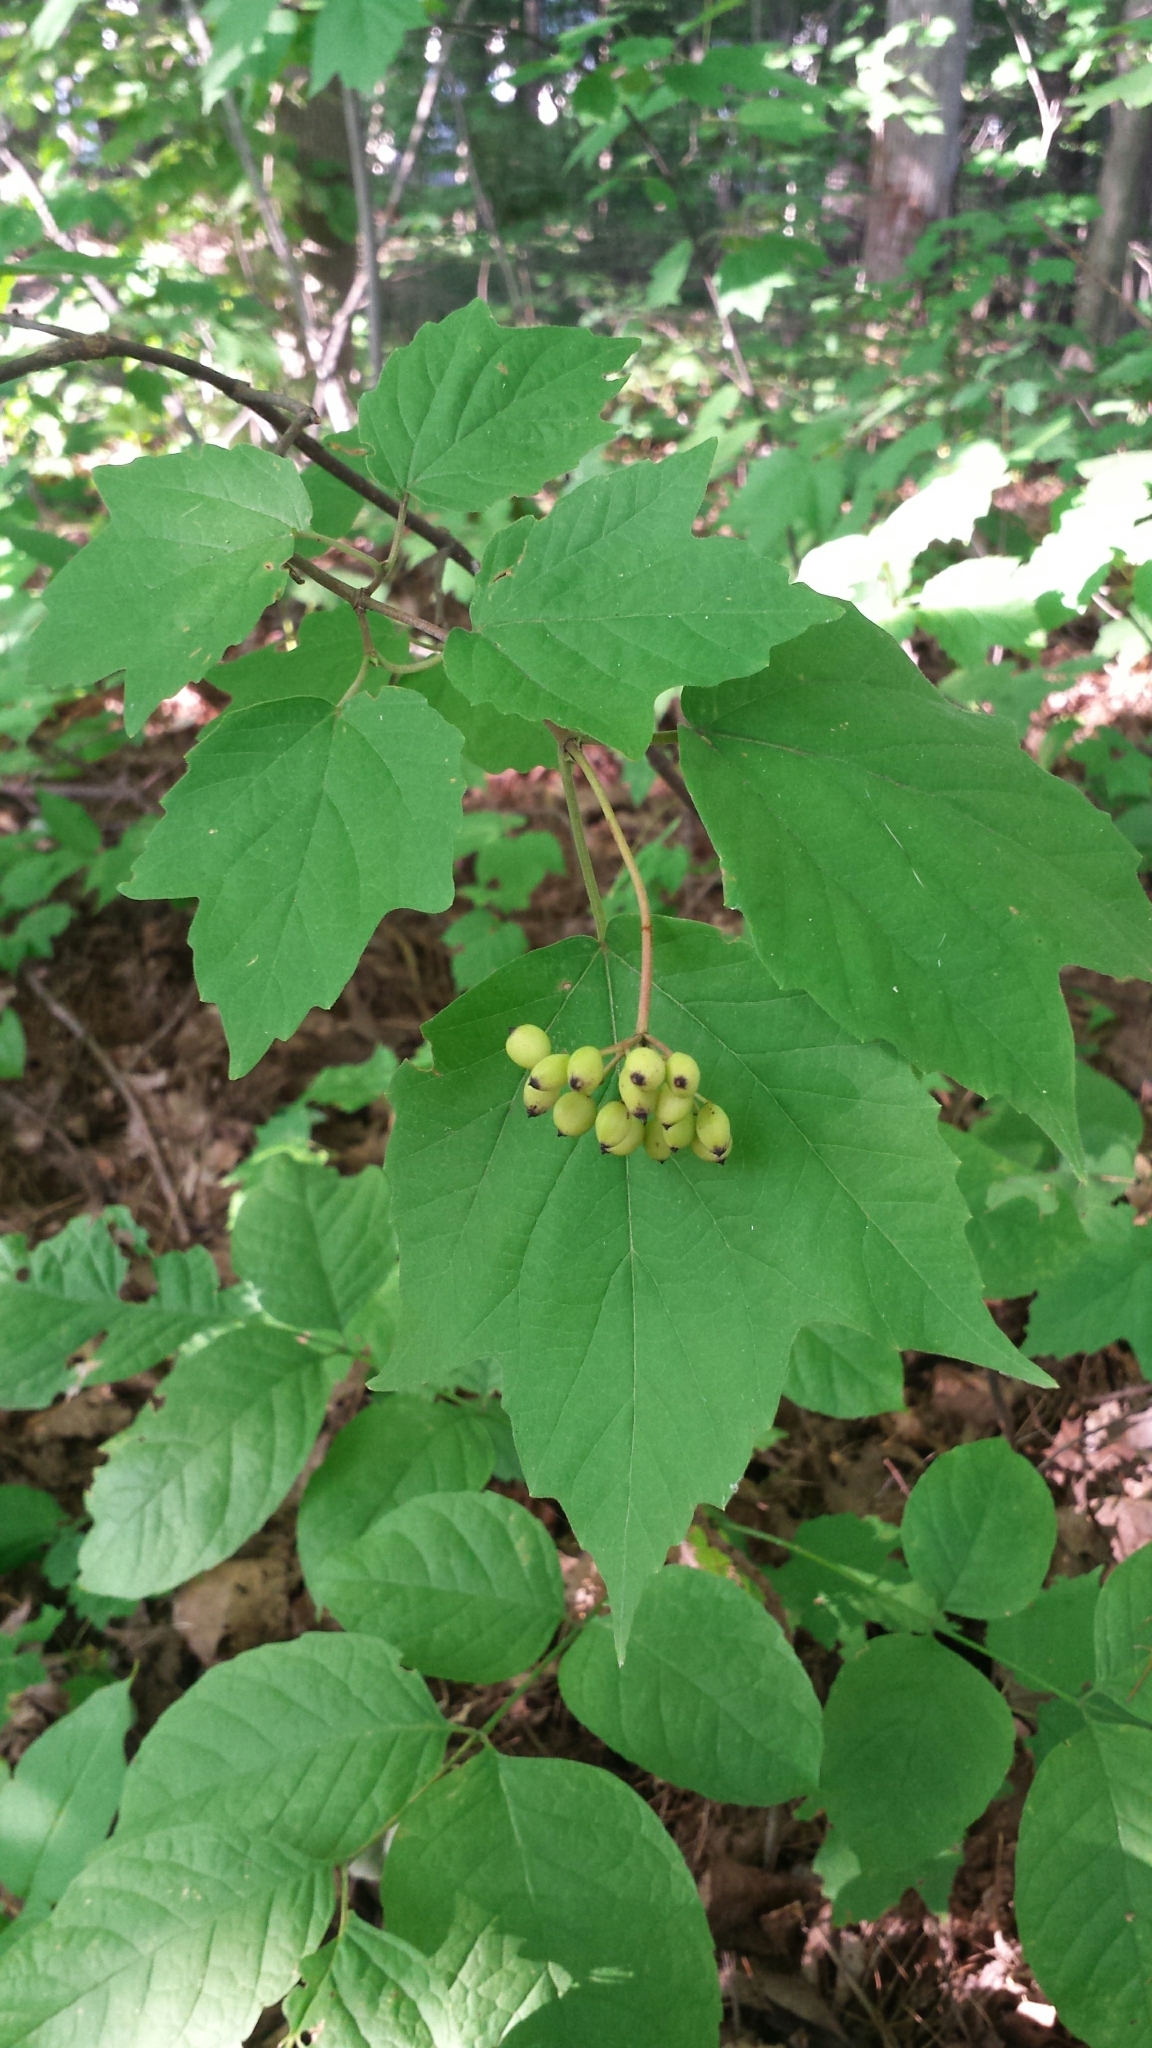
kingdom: Plantae
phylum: Tracheophyta
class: Magnoliopsida
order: Dipsacales
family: Viburnaceae
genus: Viburnum
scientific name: Viburnum acerifolium
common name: Dockmackie
